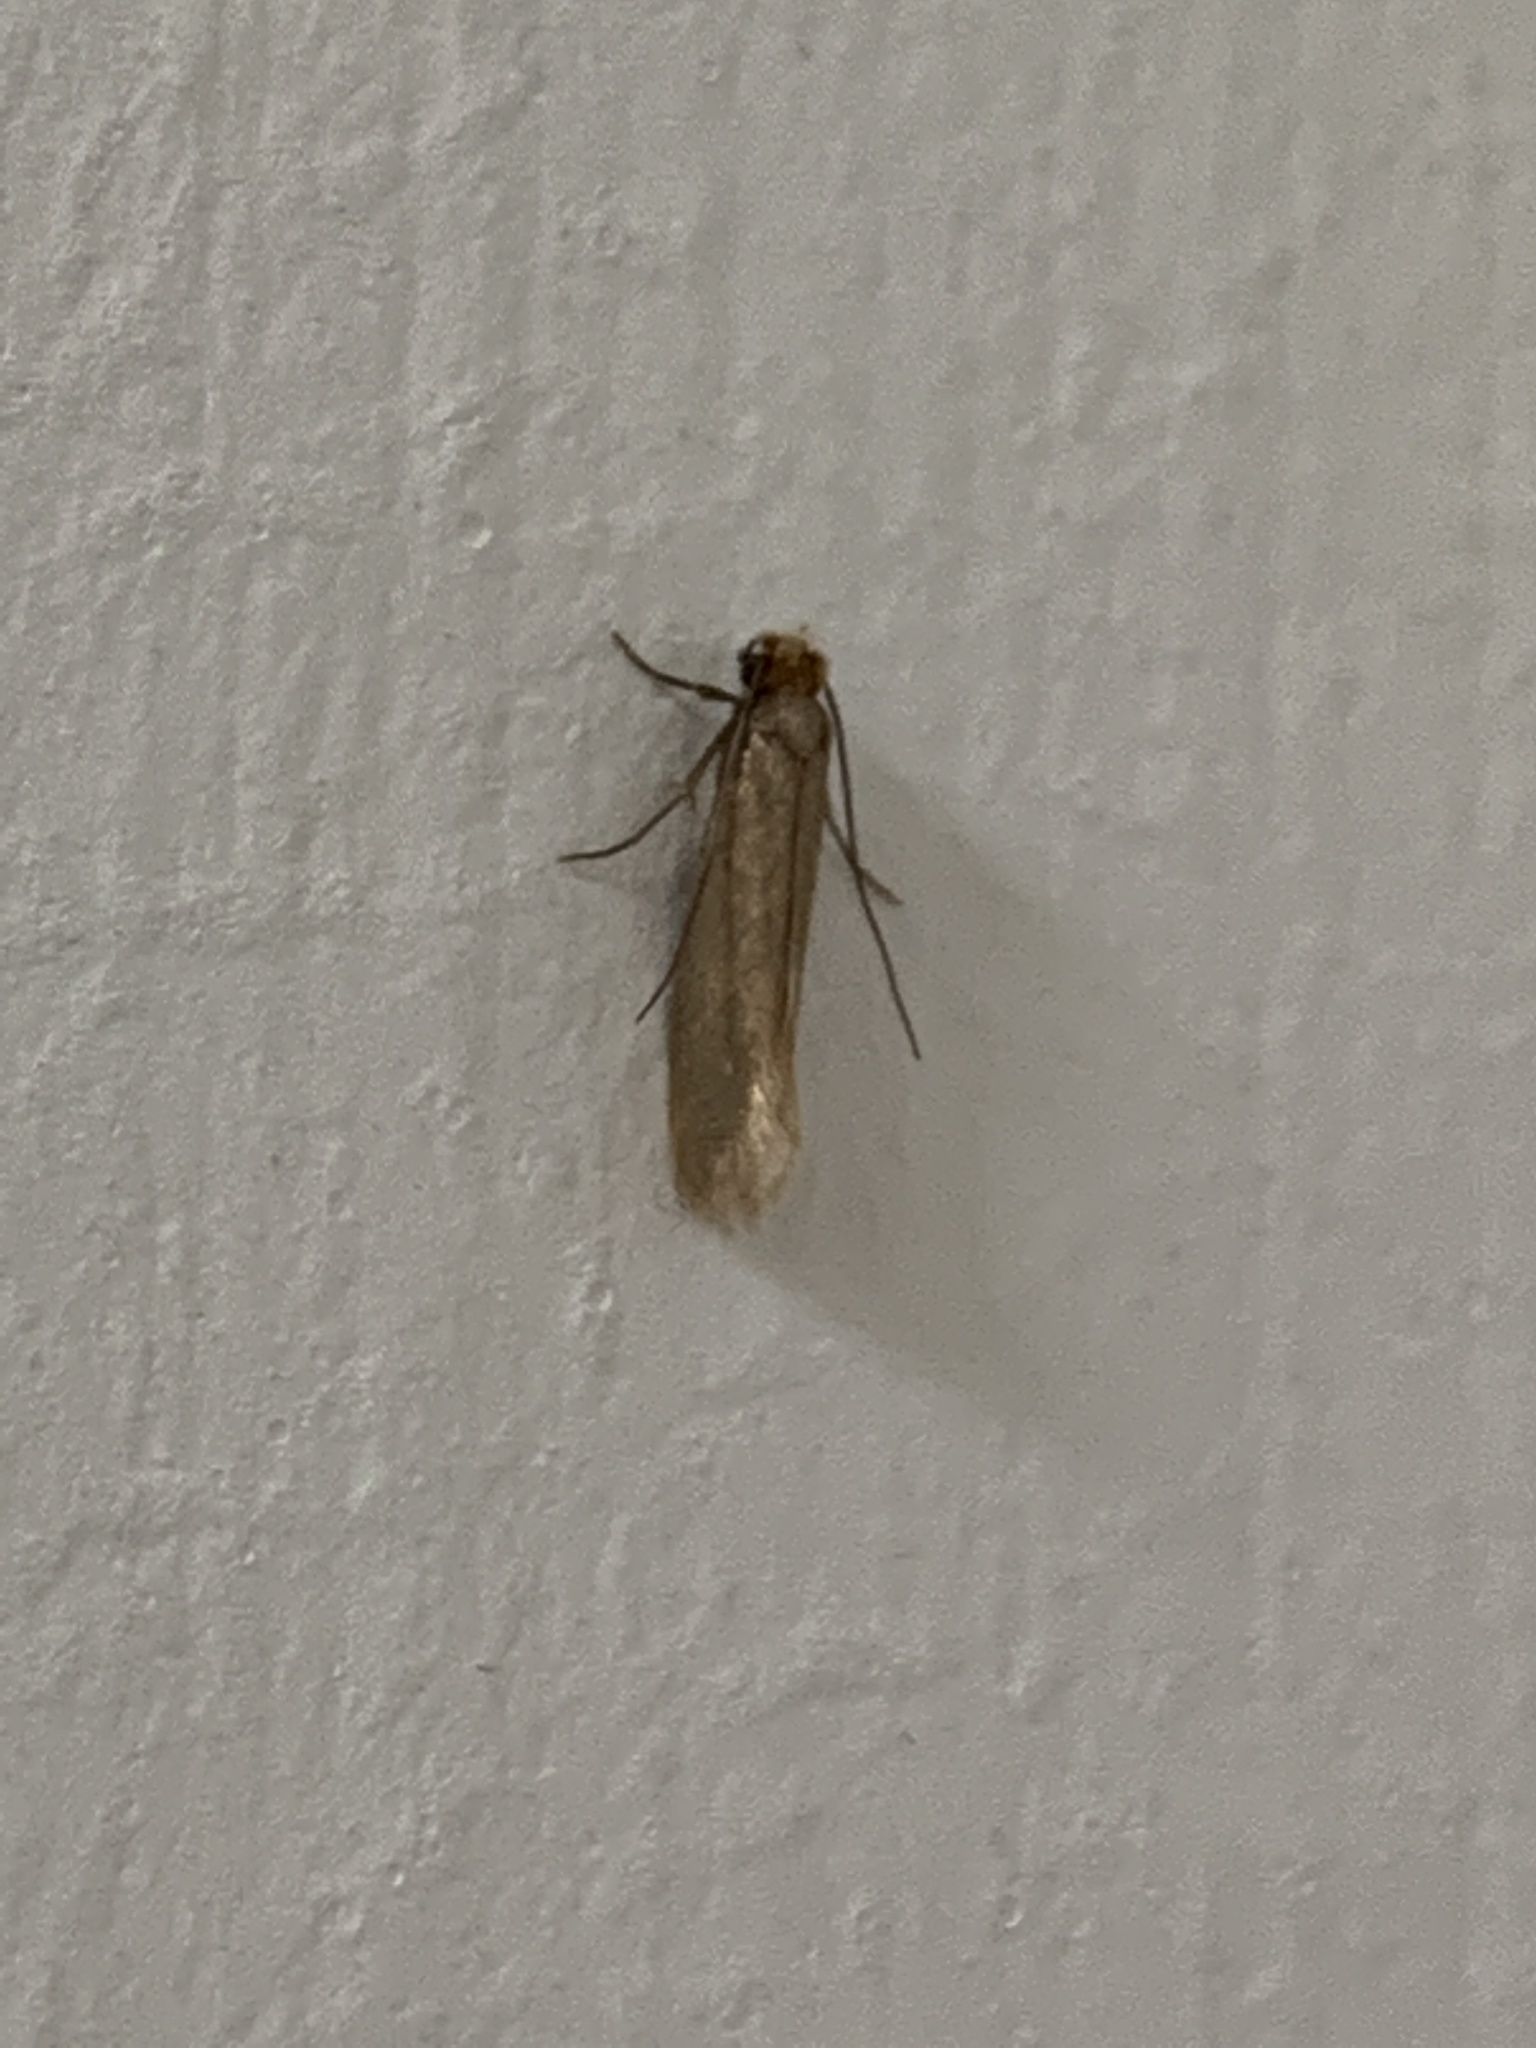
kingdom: Animalia
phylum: Arthropoda
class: Insecta
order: Lepidoptera
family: Tineidae
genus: Tineola
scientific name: Tineola bisselliella
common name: Webbing clothes moth
